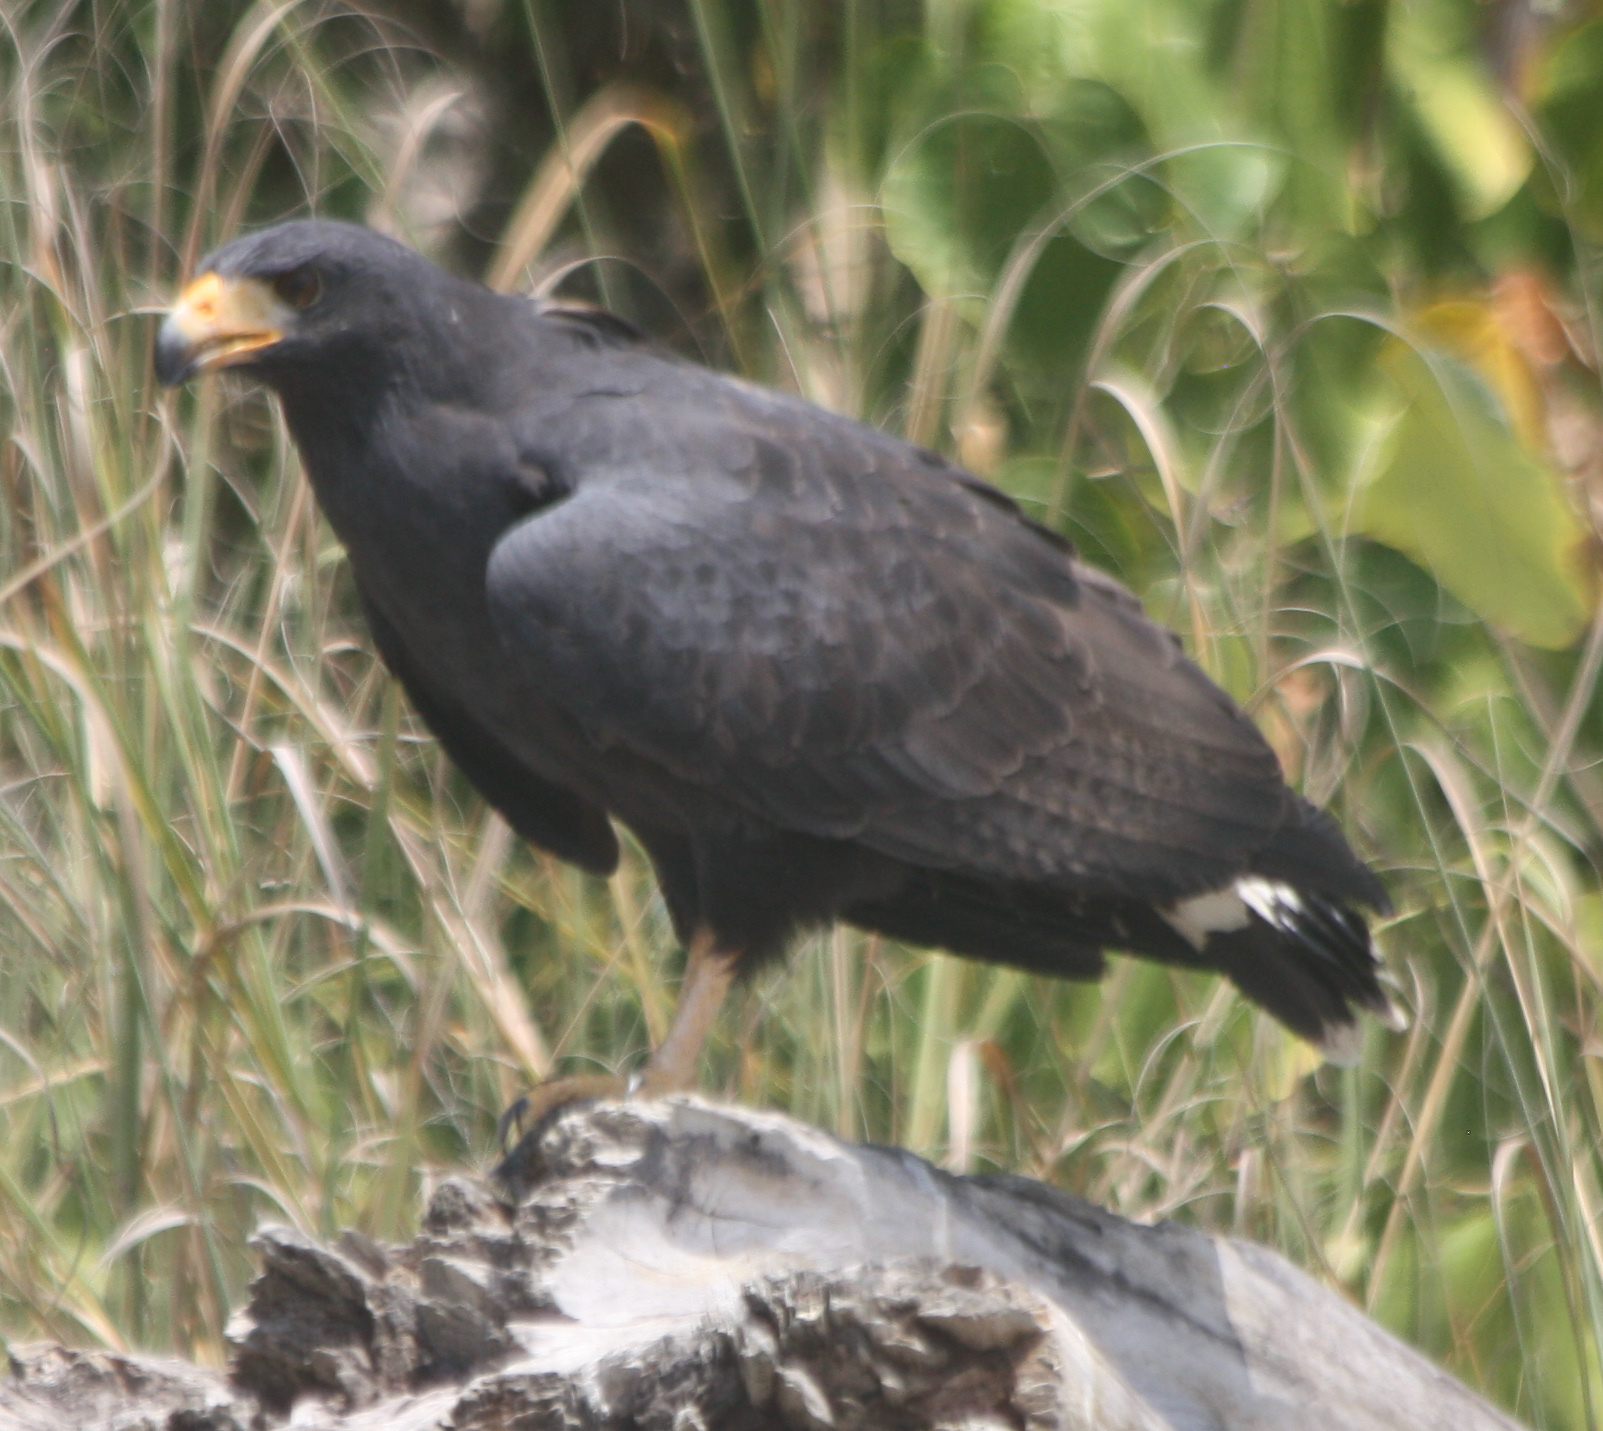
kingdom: Animalia
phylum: Chordata
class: Aves
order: Accipitriformes
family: Accipitridae
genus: Buteogallus
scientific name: Buteogallus anthracinus
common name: Common black hawk
